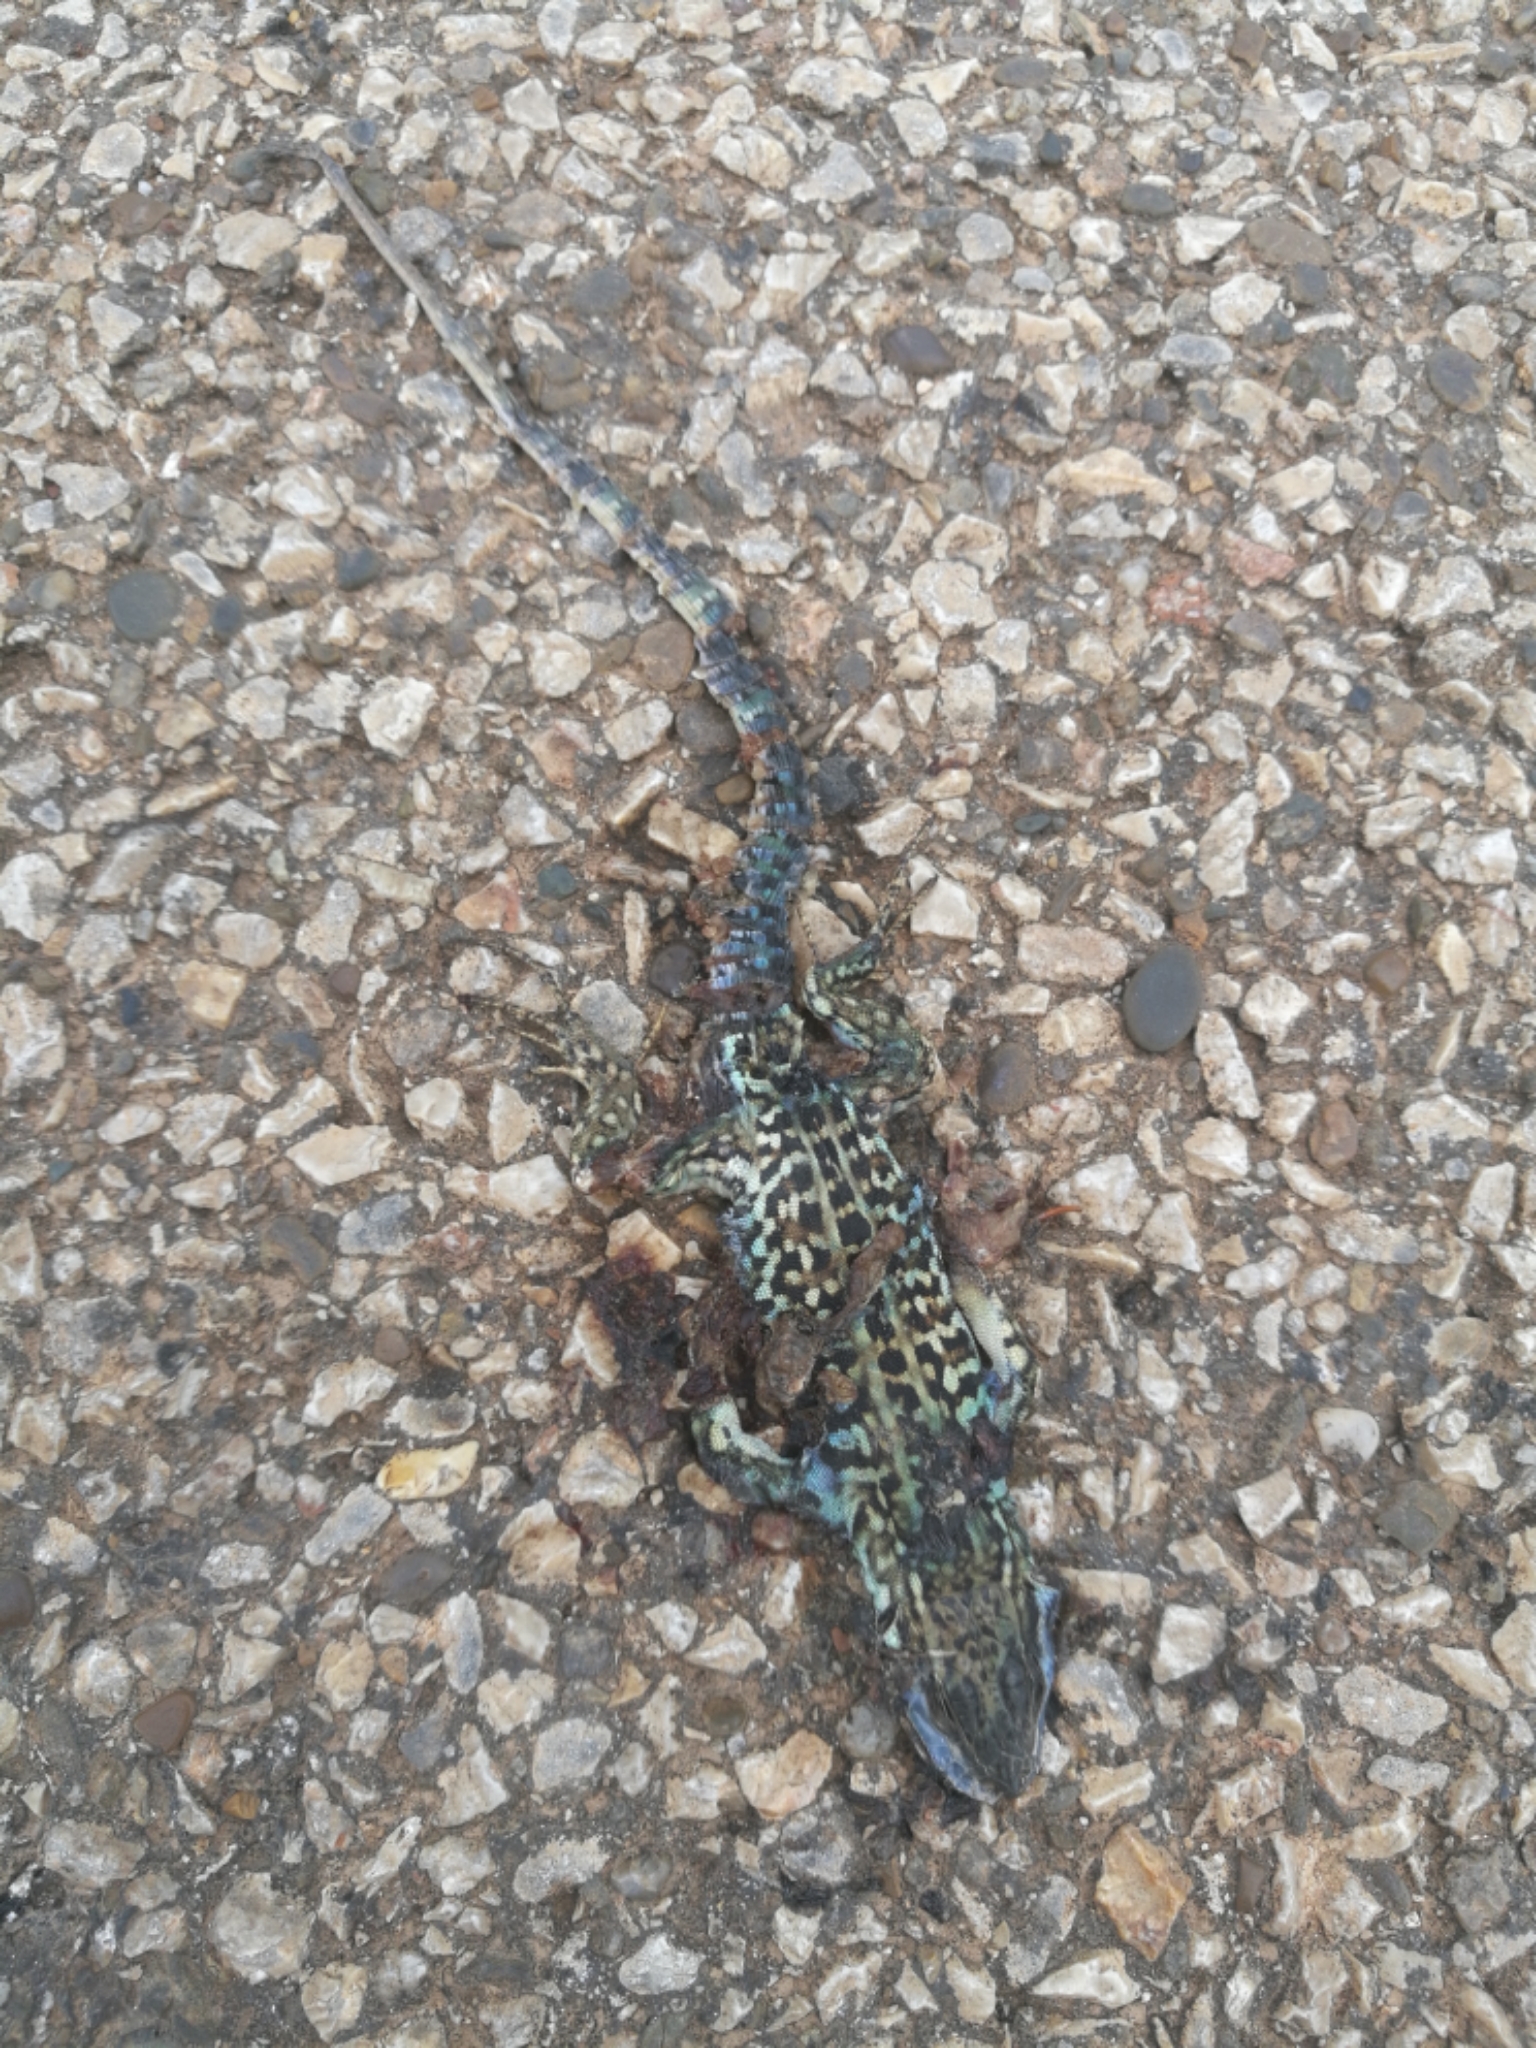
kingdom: Animalia
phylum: Chordata
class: Squamata
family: Lacertidae
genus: Podarcis
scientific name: Podarcis siculus
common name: Italian wall lizard
